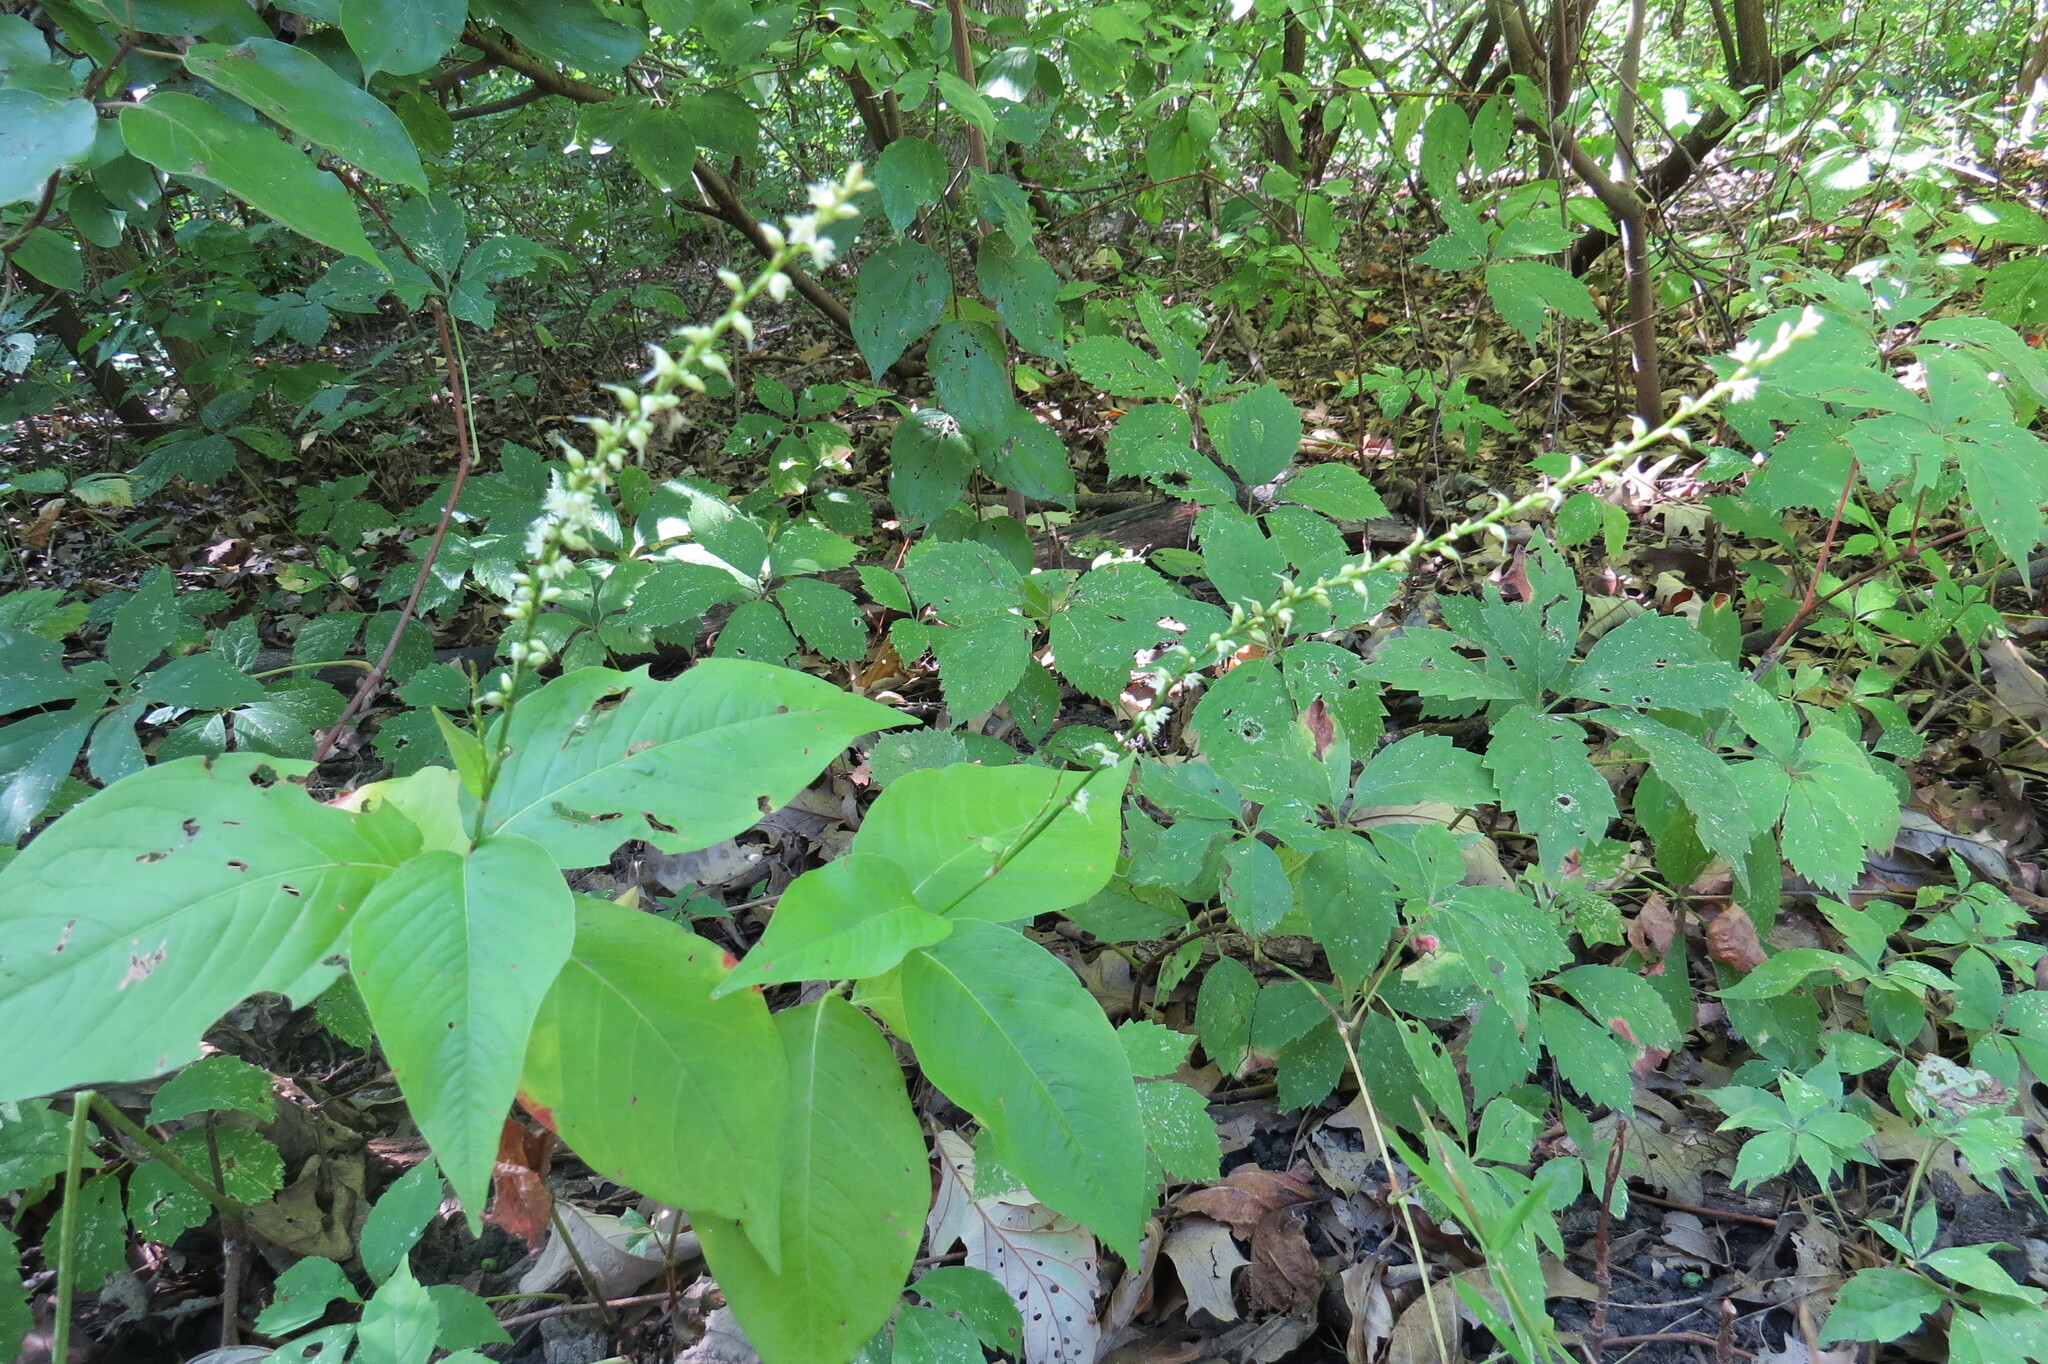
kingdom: Plantae
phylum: Tracheophyta
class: Magnoliopsida
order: Caryophyllales
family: Polygonaceae
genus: Persicaria
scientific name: Persicaria virginiana
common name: Jumpseed
